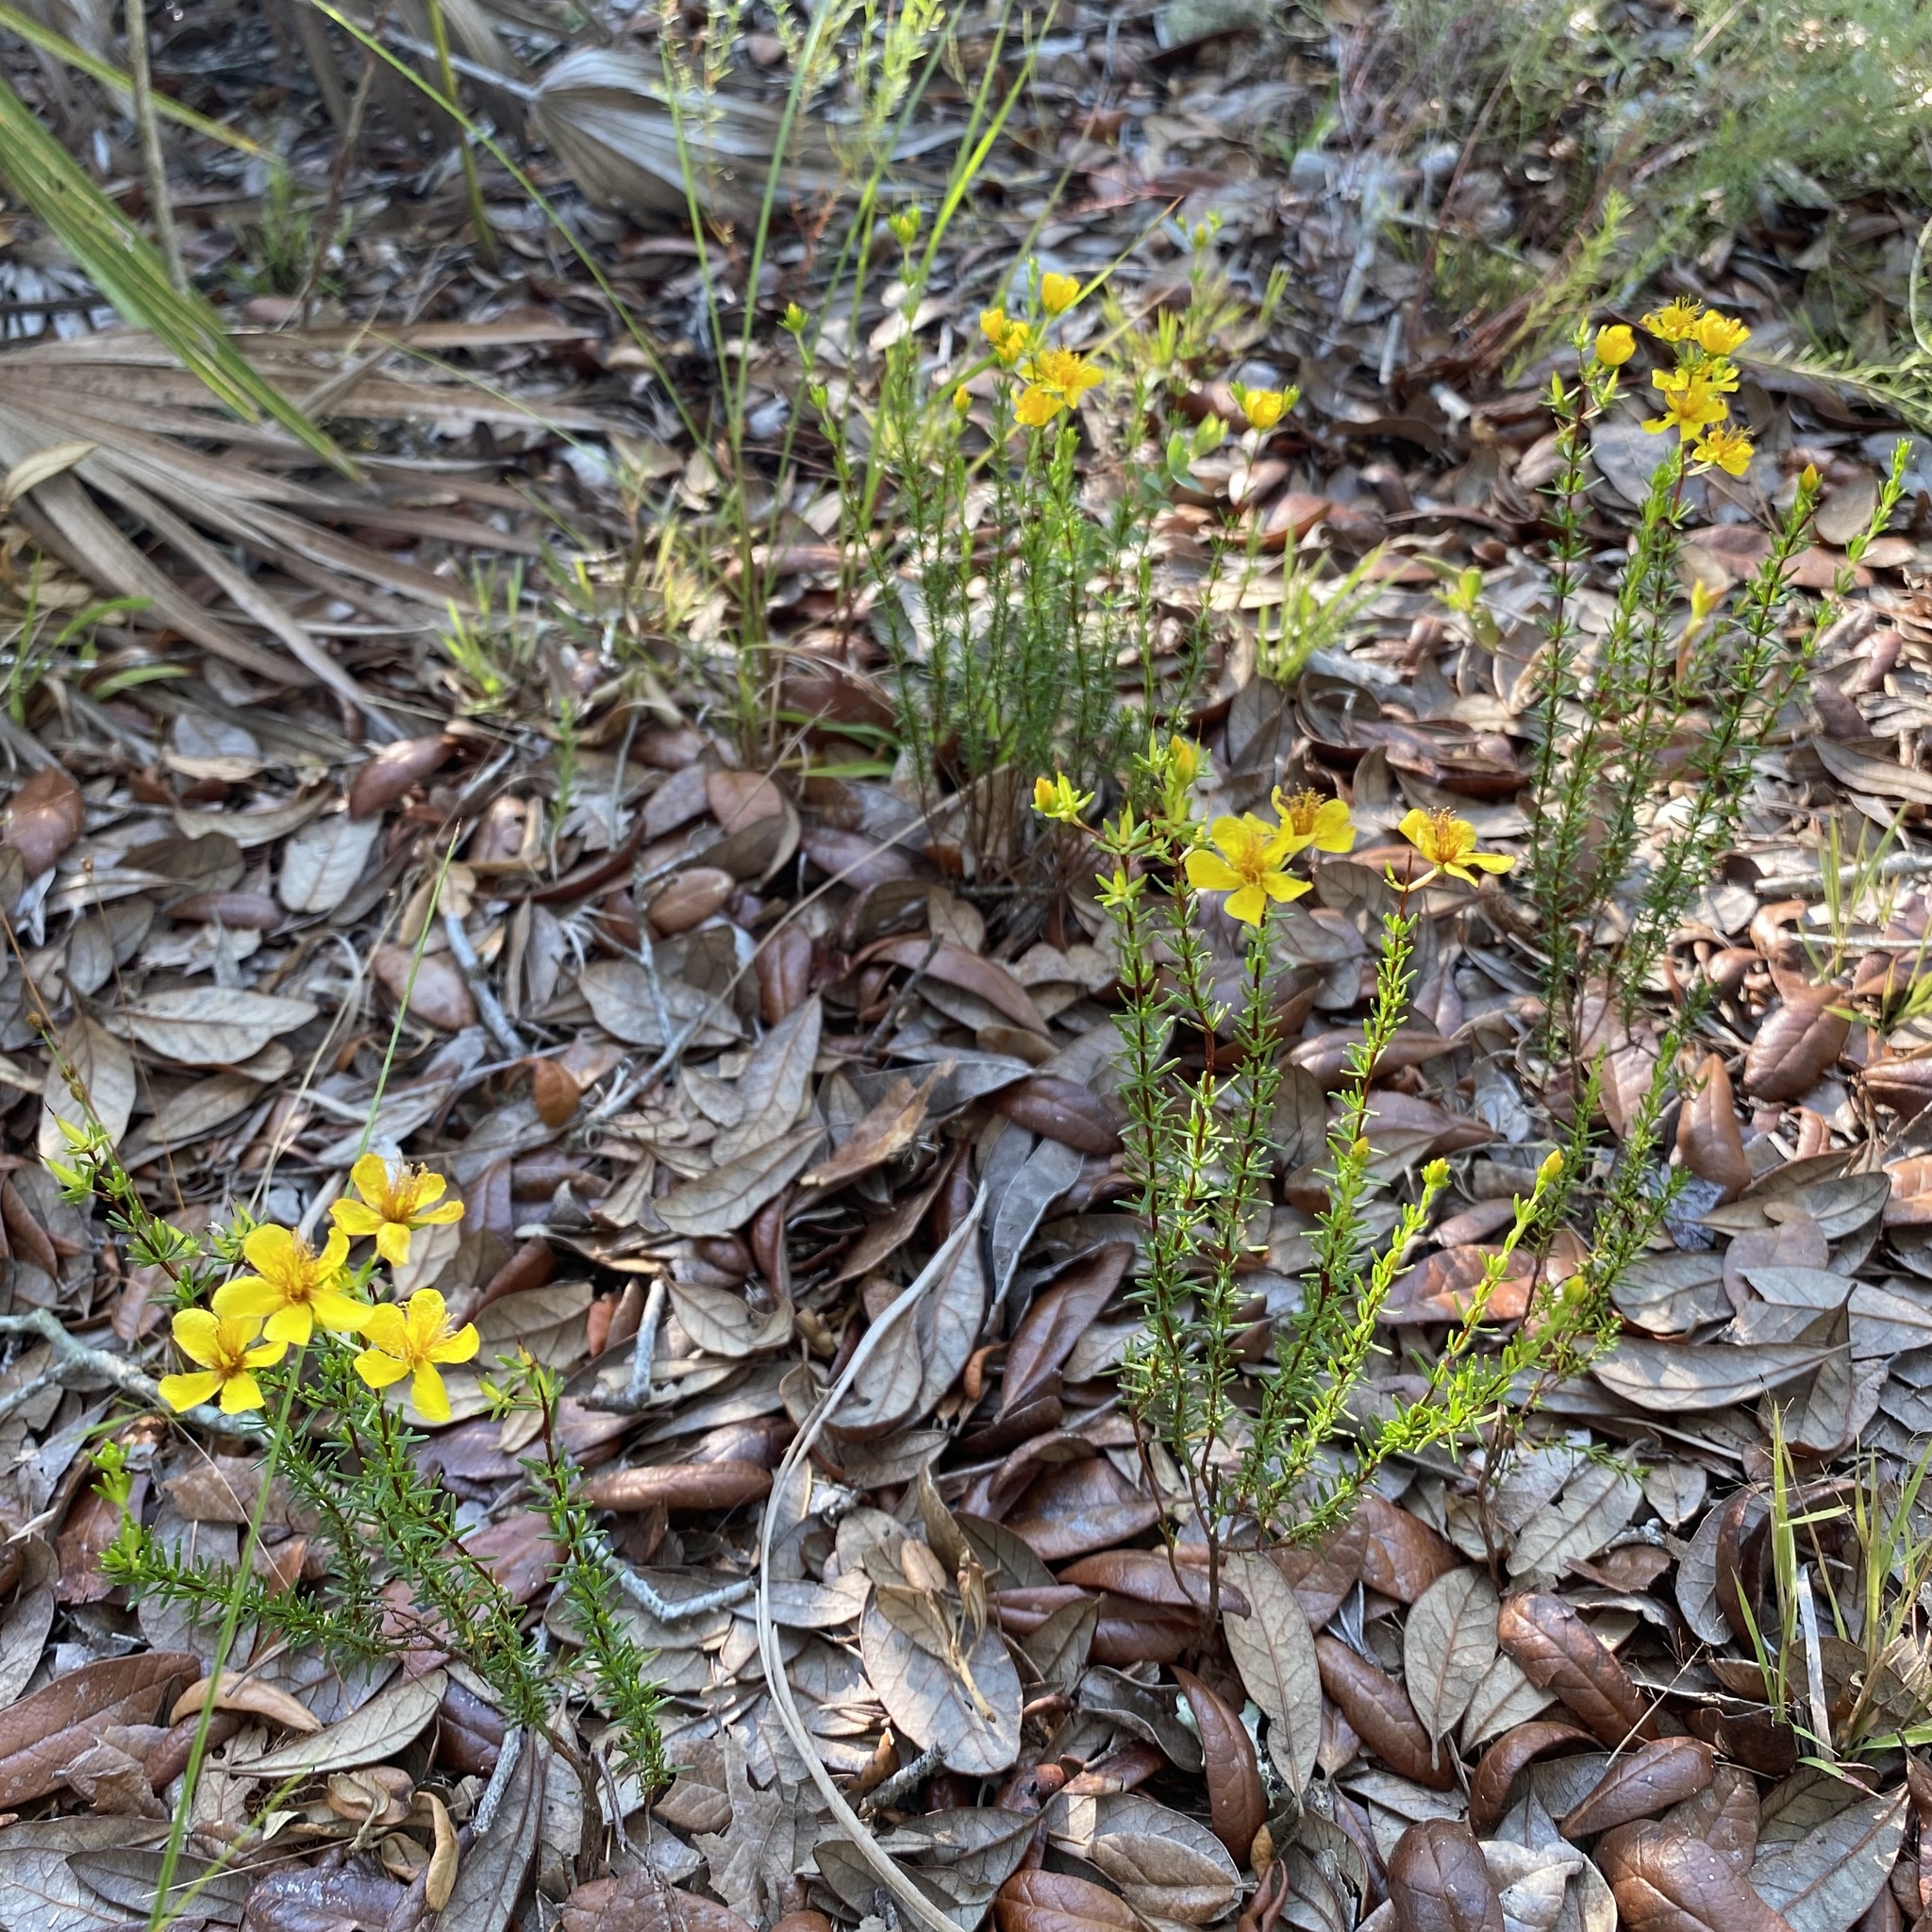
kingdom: Plantae
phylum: Tracheophyta
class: Magnoliopsida
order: Malpighiales
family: Hypericaceae
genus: Hypericum
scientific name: Hypericum tenuifolium
